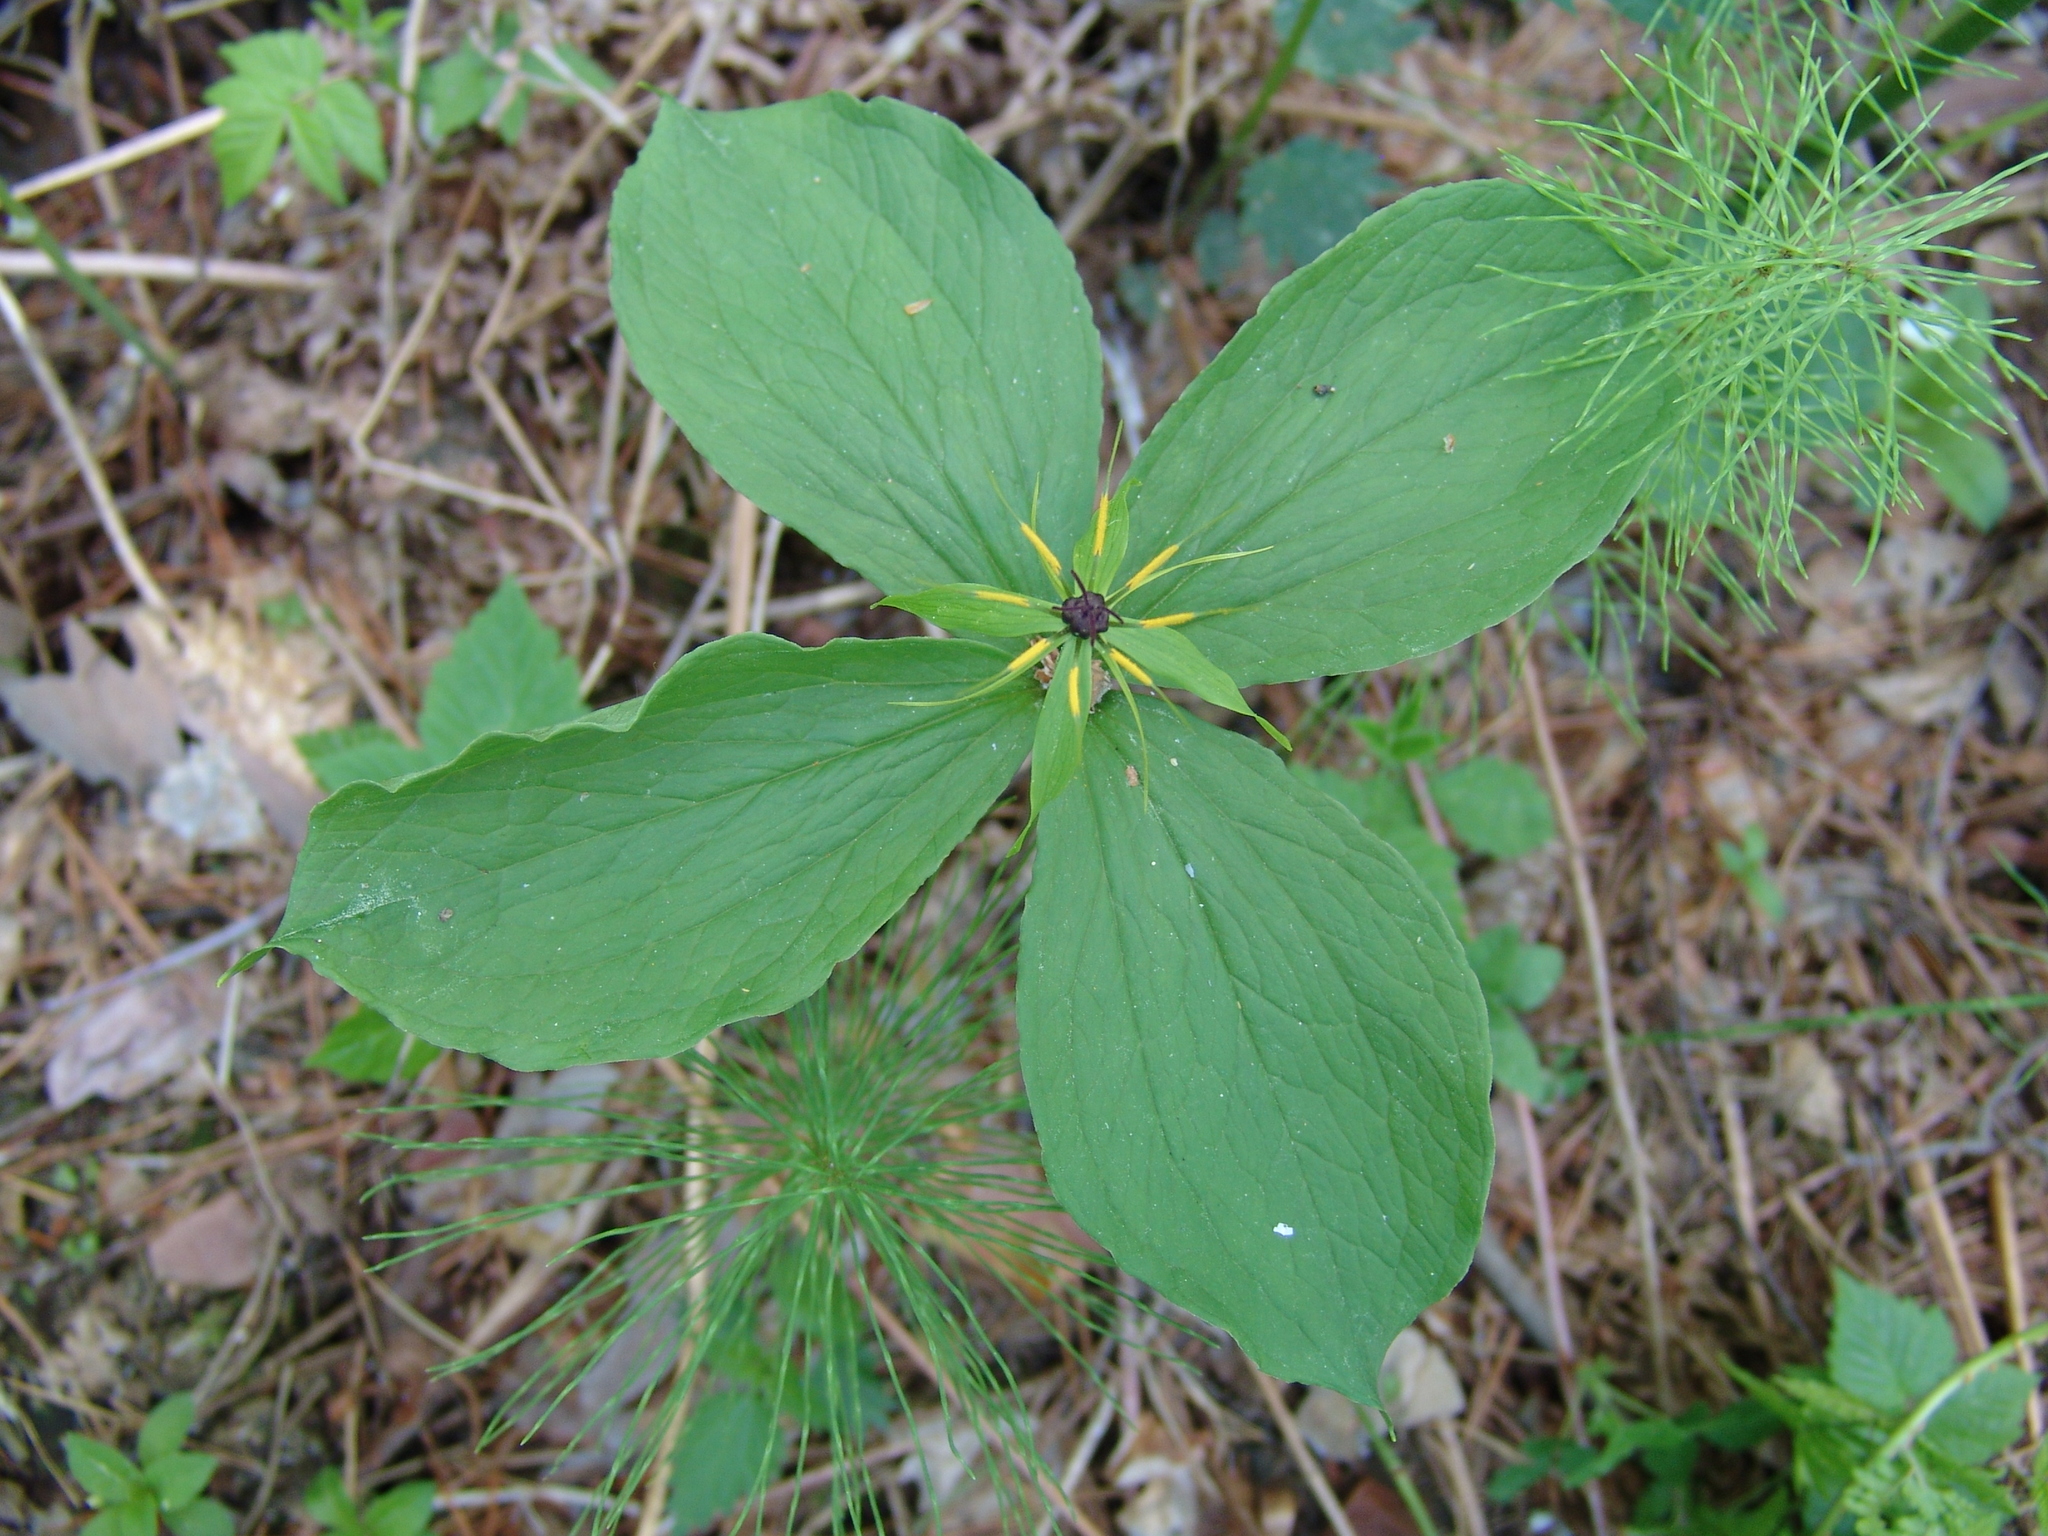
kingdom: Plantae
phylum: Tracheophyta
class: Liliopsida
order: Liliales
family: Melanthiaceae
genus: Paris
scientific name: Paris quadrifolia
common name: Herb-paris
